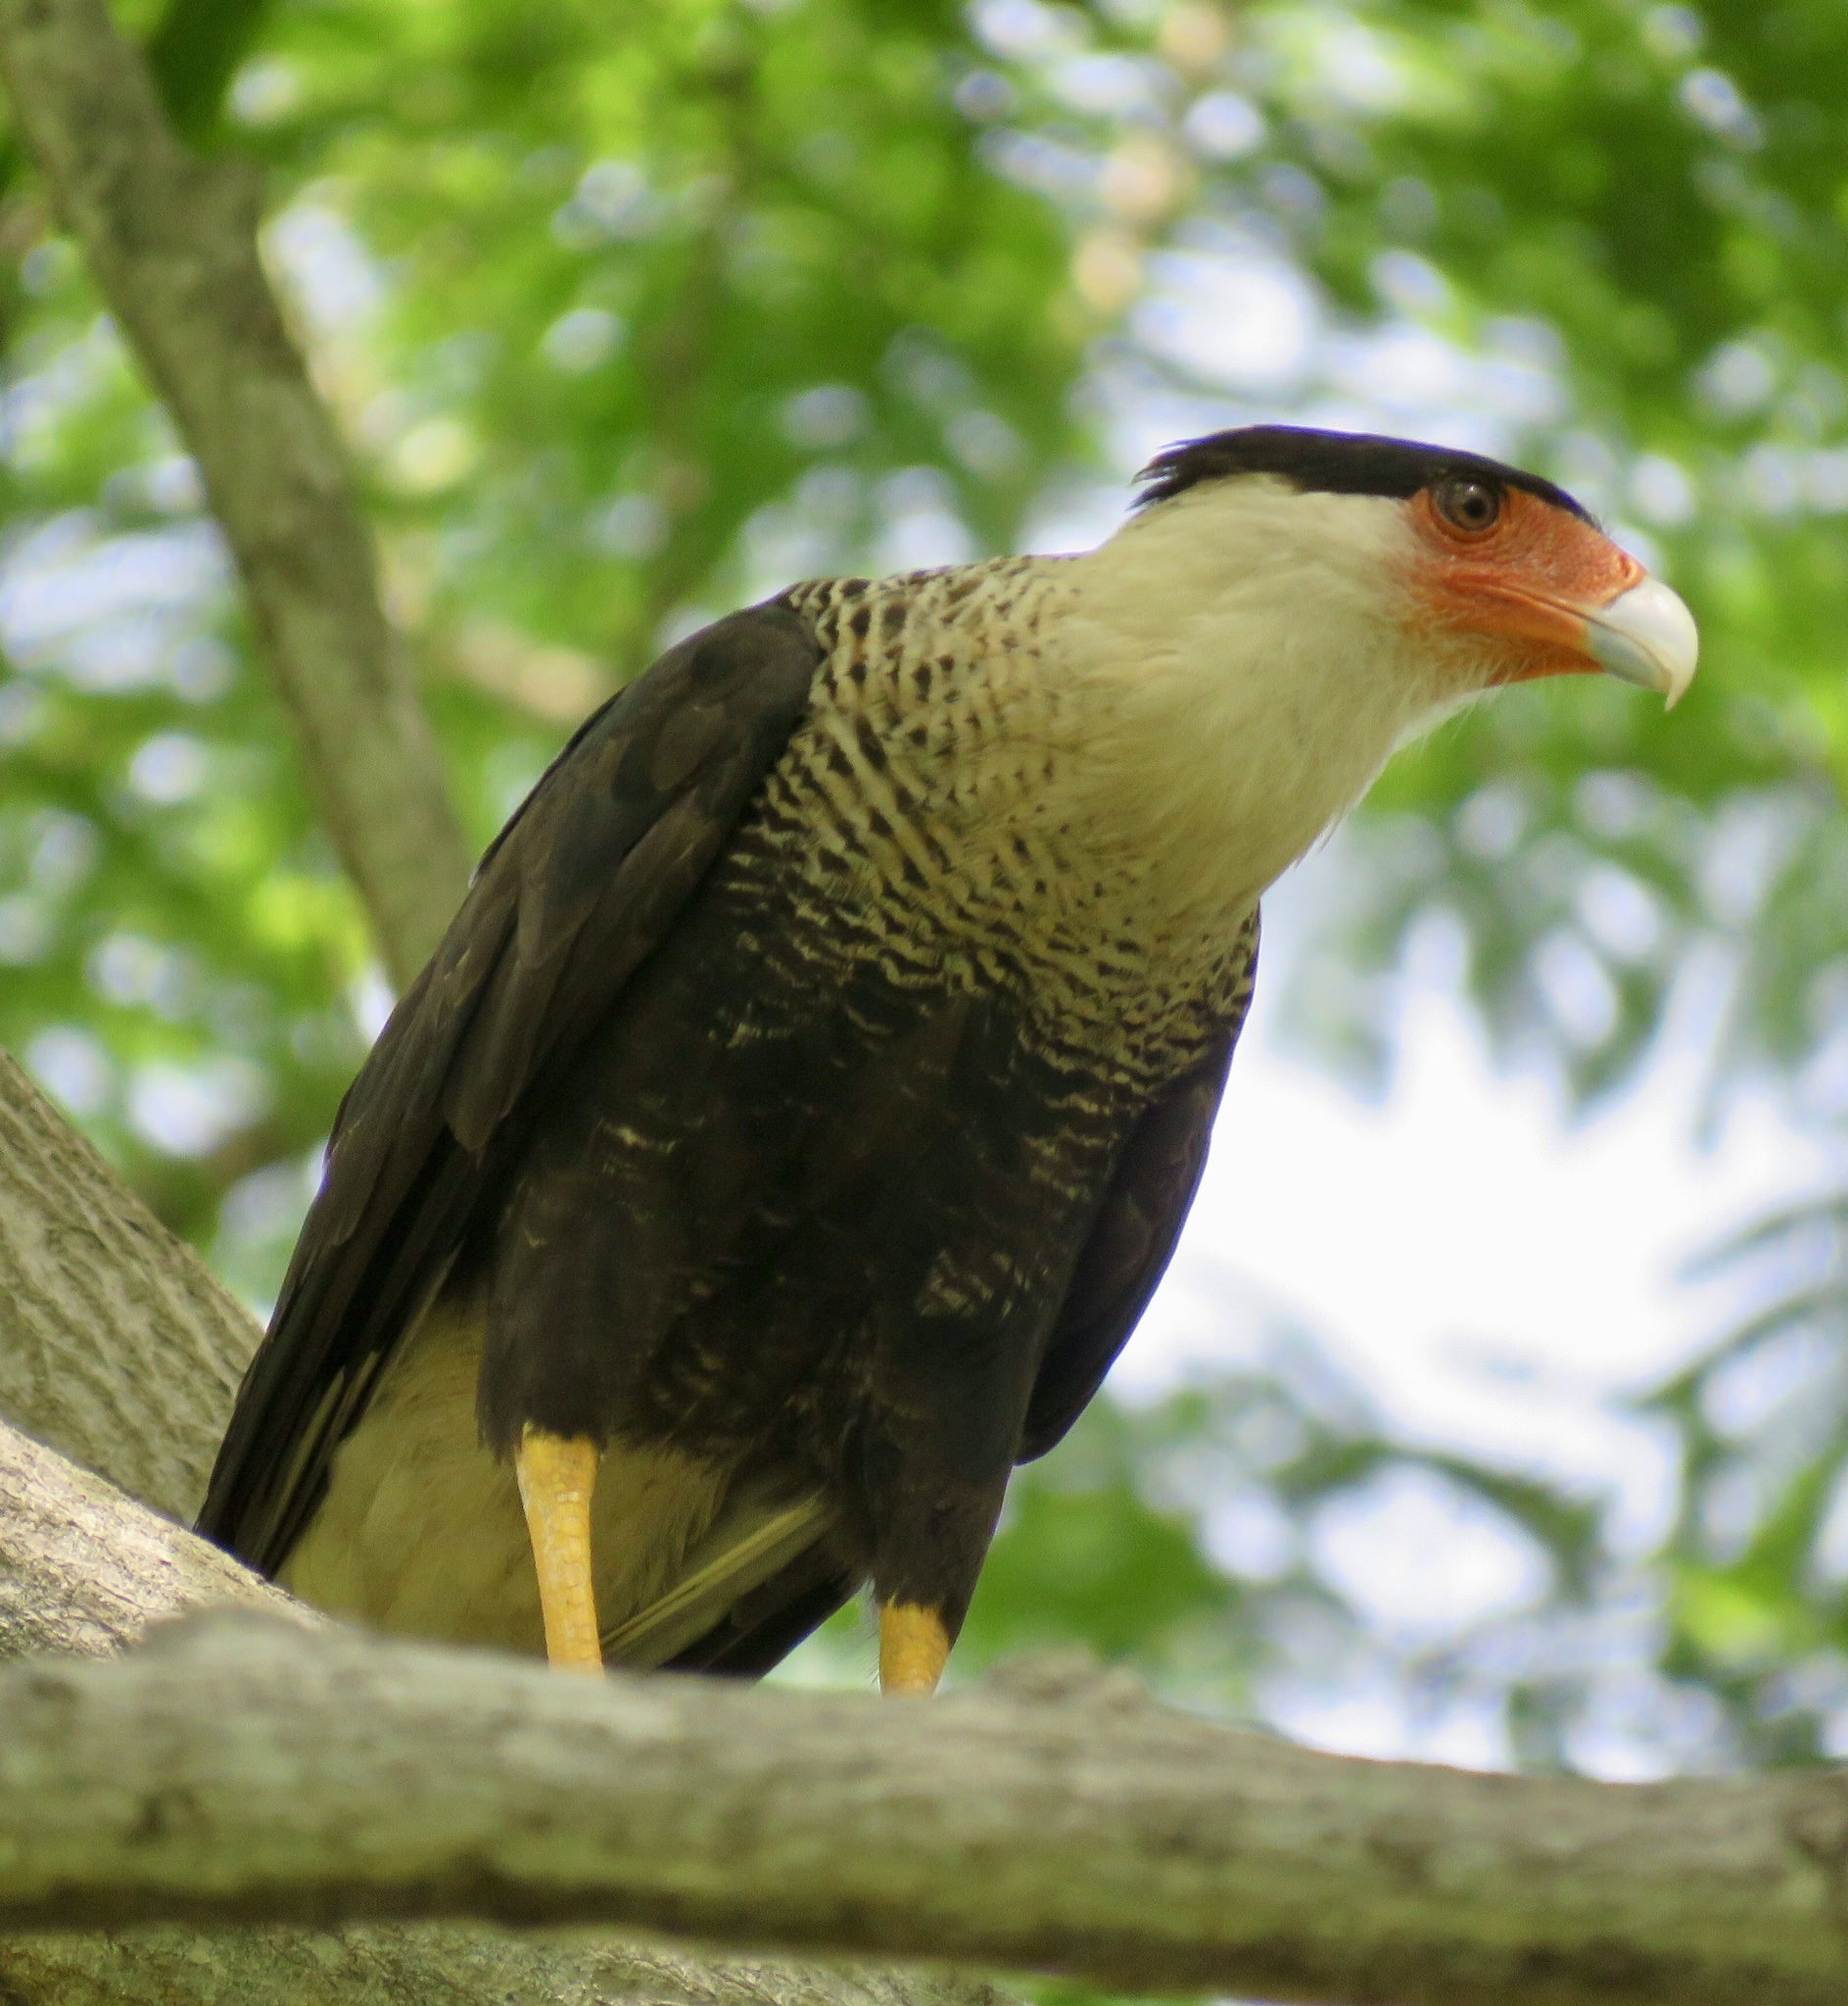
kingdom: Animalia
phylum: Chordata
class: Aves
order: Falconiformes
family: Falconidae
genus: Caracara
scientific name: Caracara plancus
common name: Southern caracara
